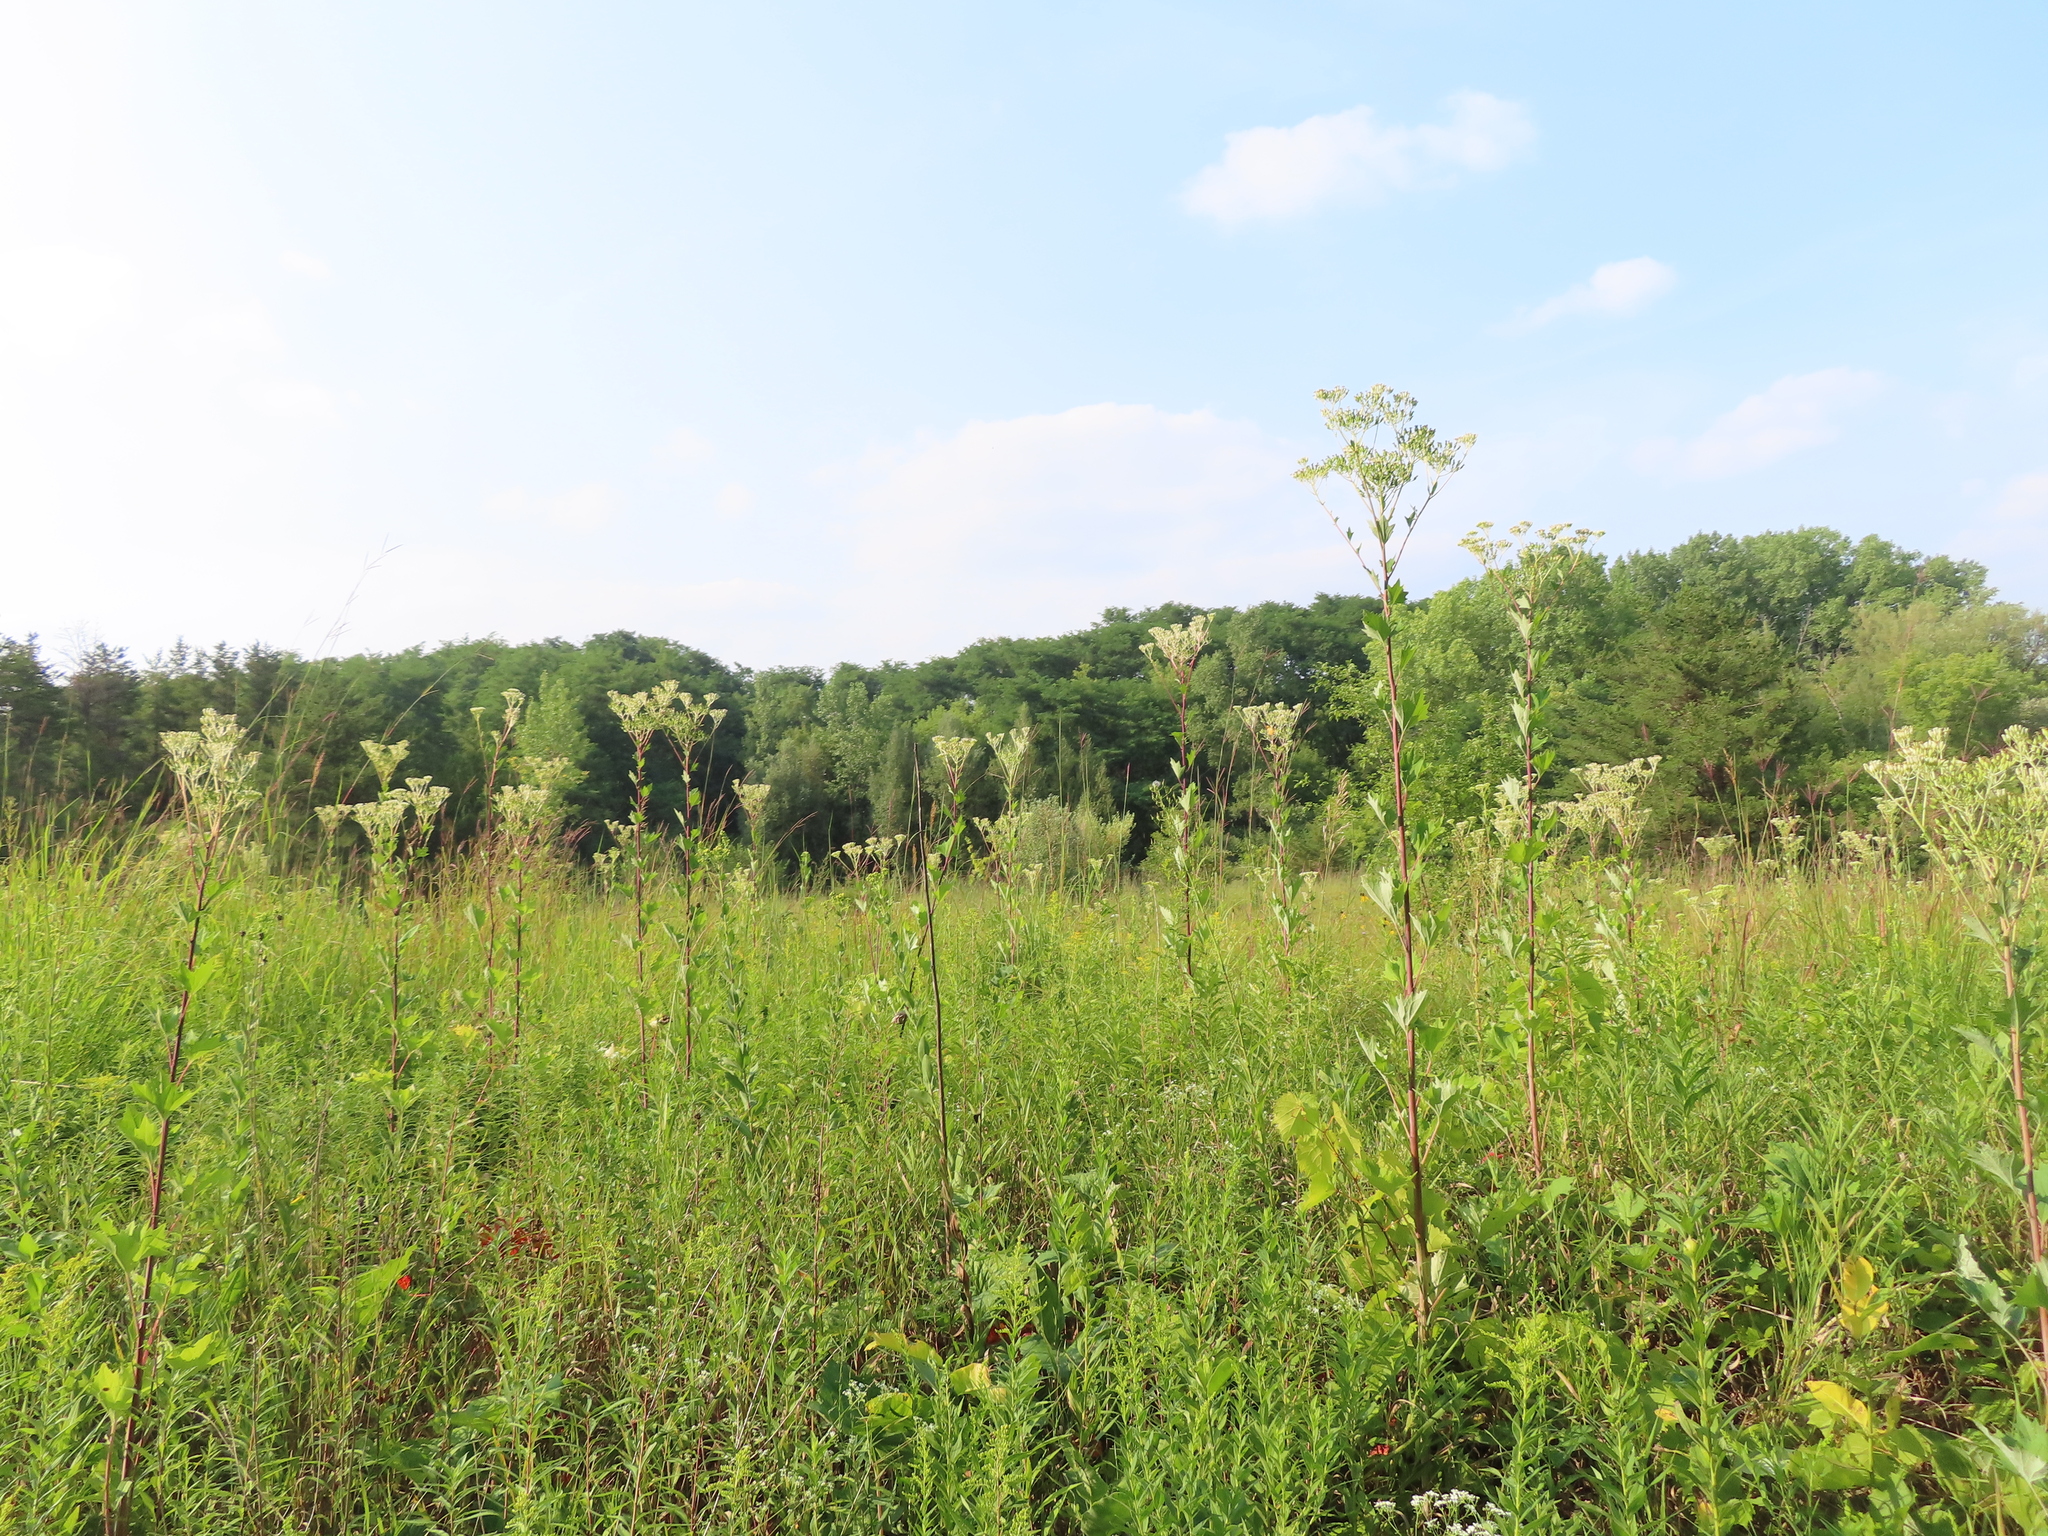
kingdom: Plantae
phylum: Tracheophyta
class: Magnoliopsida
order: Asterales
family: Asteraceae
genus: Arnoglossum
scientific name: Arnoglossum atriplicifolium
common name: Pale indian-plantain
